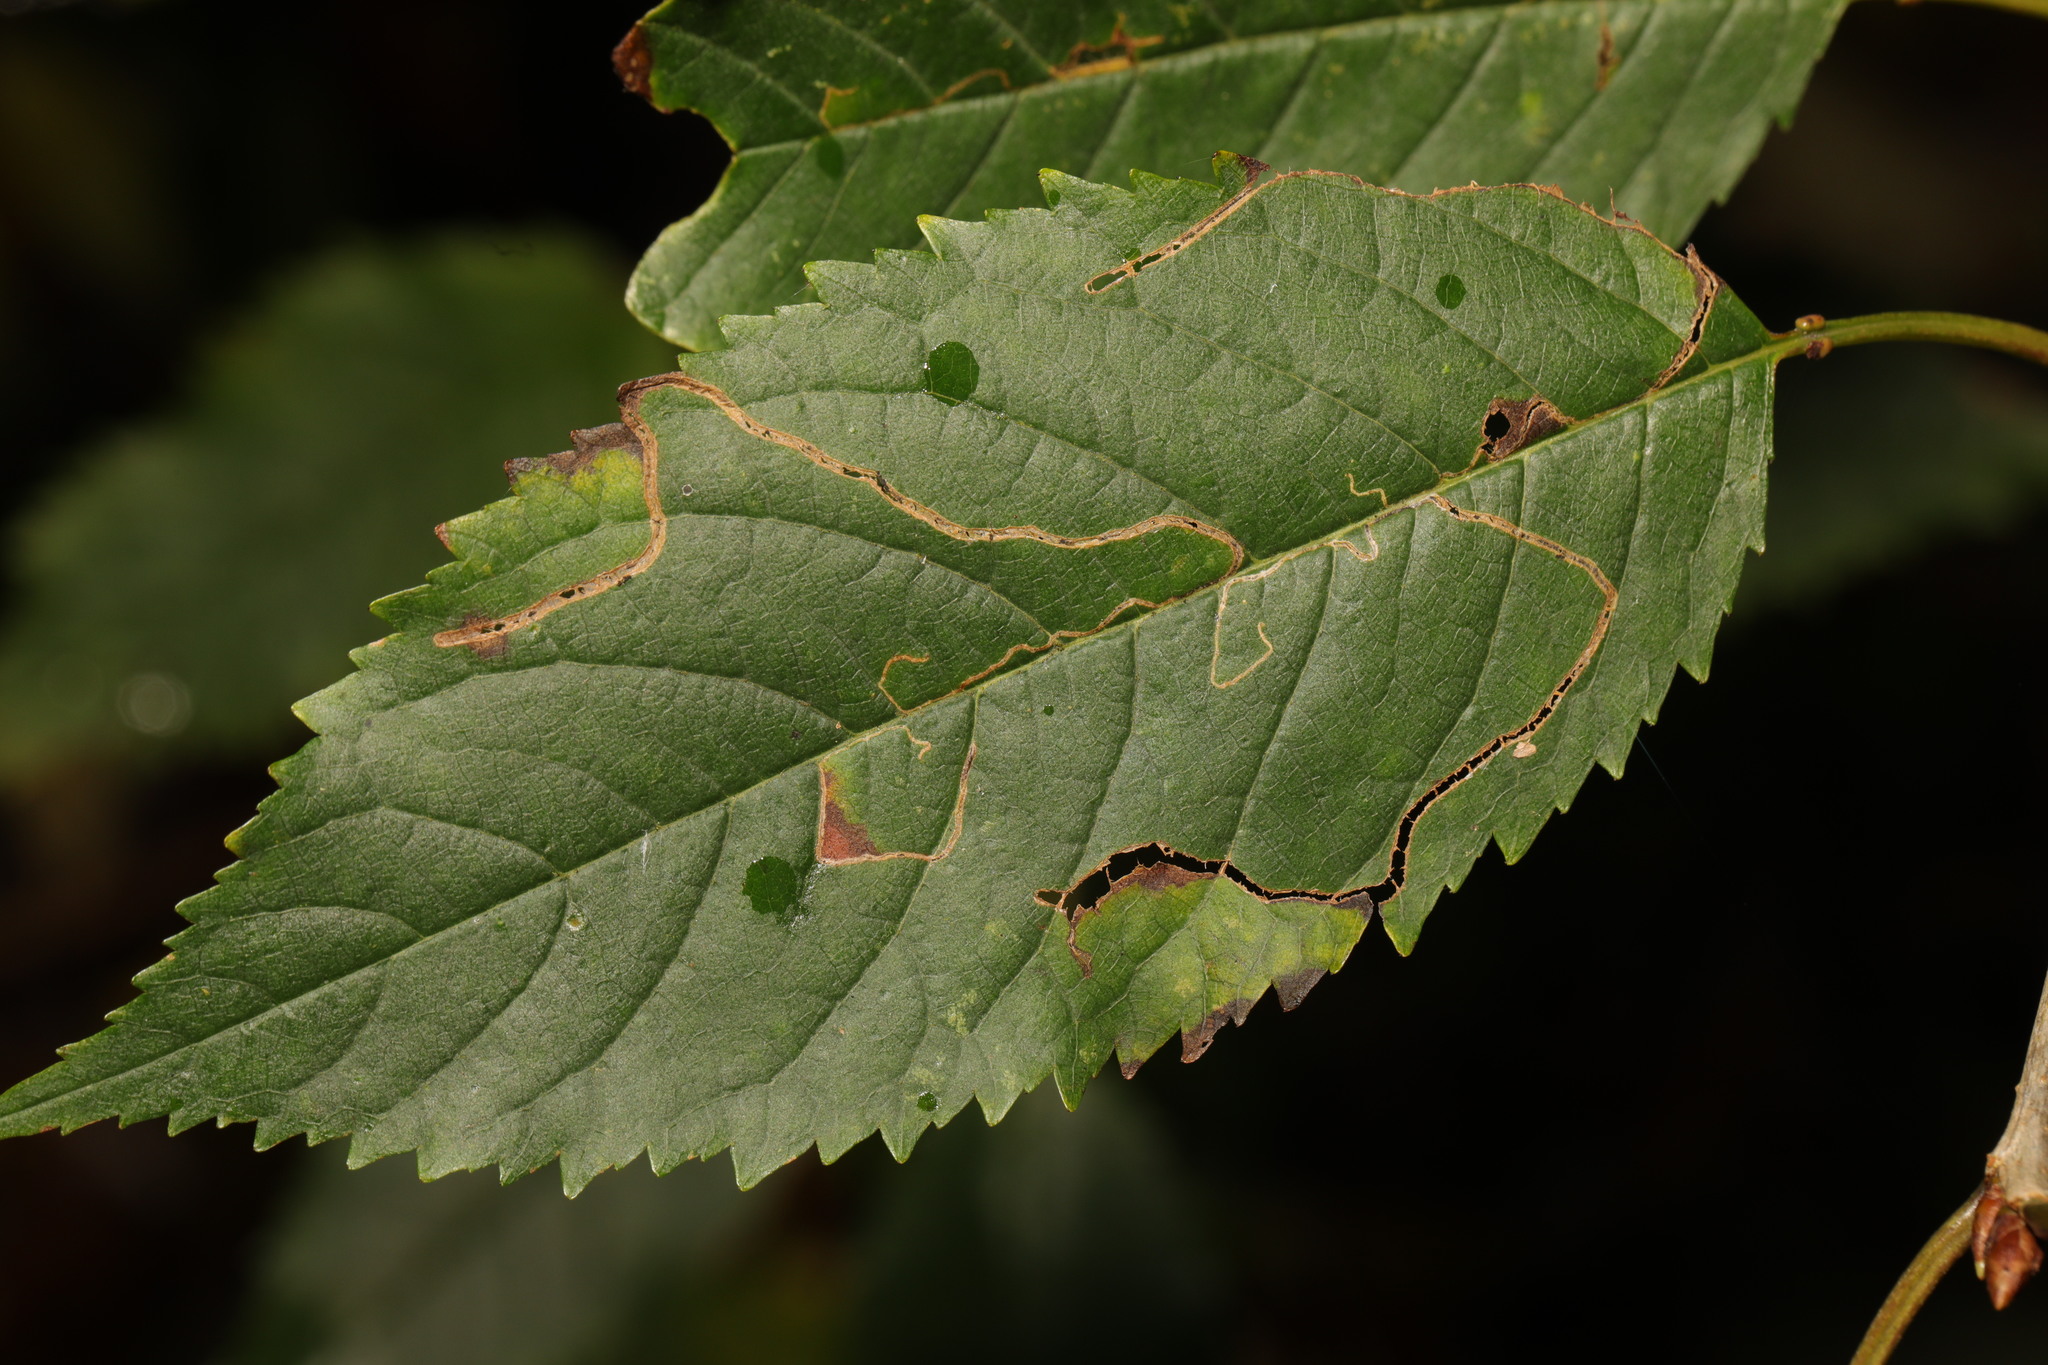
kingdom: Animalia
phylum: Arthropoda
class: Insecta
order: Lepidoptera
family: Lyonetiidae
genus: Lyonetia
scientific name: Lyonetia clerkella
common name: Apple leaf miner
